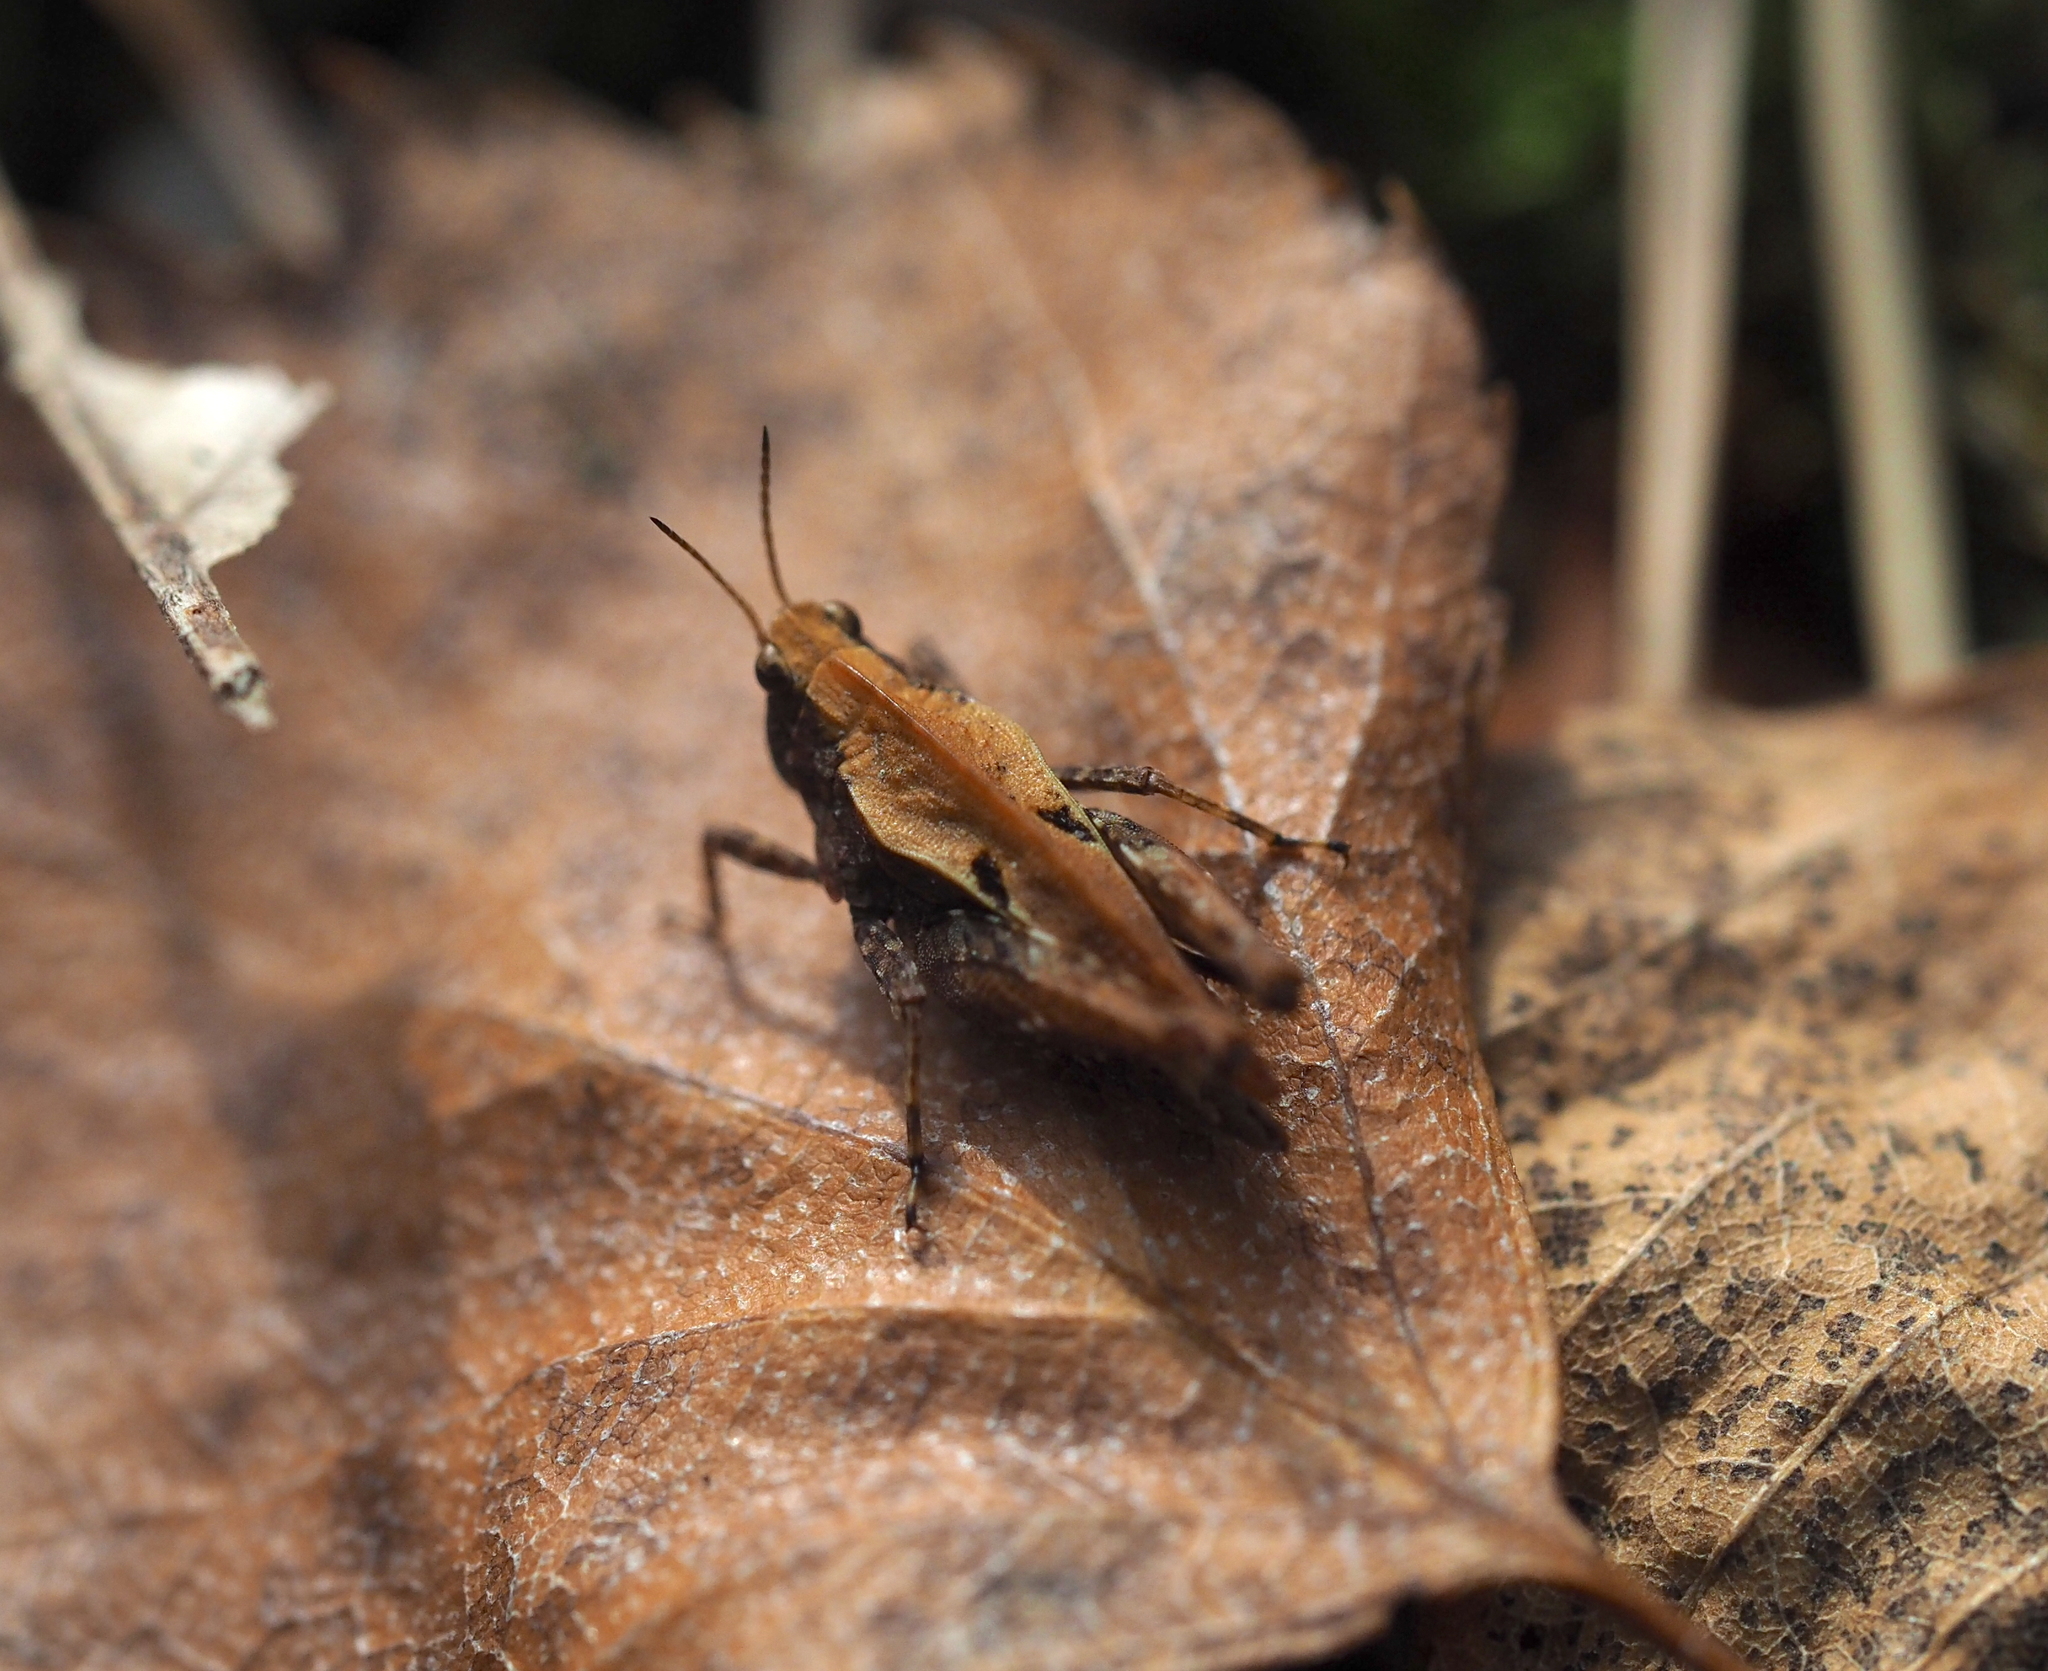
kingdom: Animalia
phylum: Arthropoda
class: Insecta
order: Orthoptera
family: Tetrigidae
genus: Tetrix
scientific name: Tetrix undulata
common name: Common groundhopper
